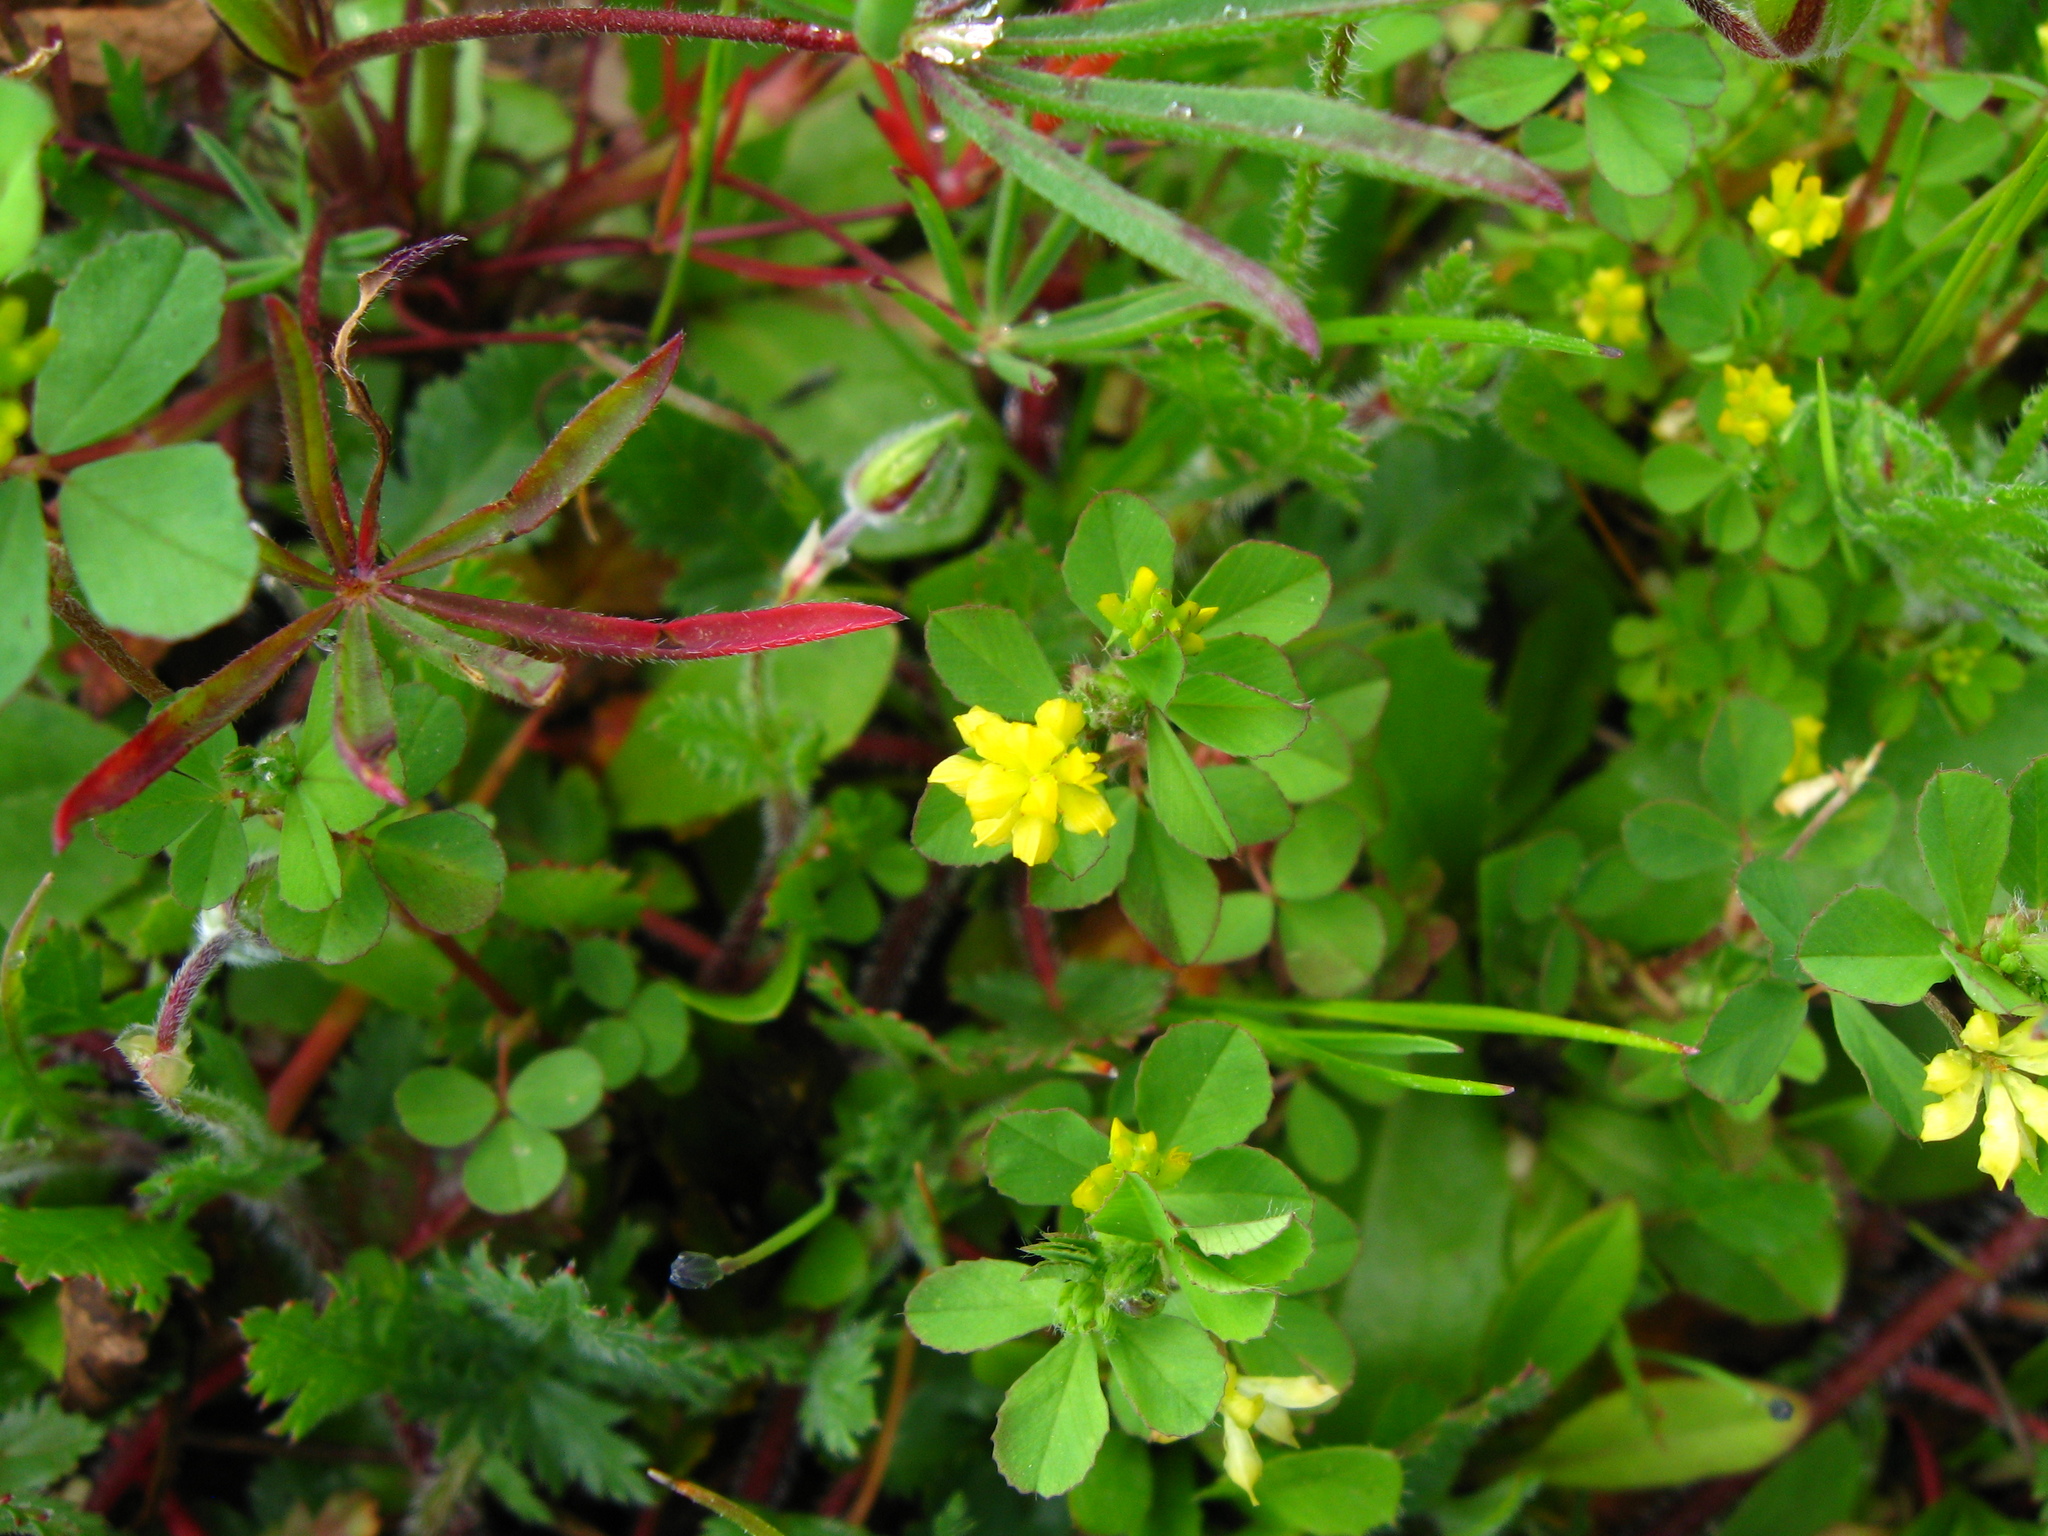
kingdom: Plantae
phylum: Tracheophyta
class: Magnoliopsida
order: Fabales
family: Fabaceae
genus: Trifolium
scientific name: Trifolium dubium
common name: Suckling clover
